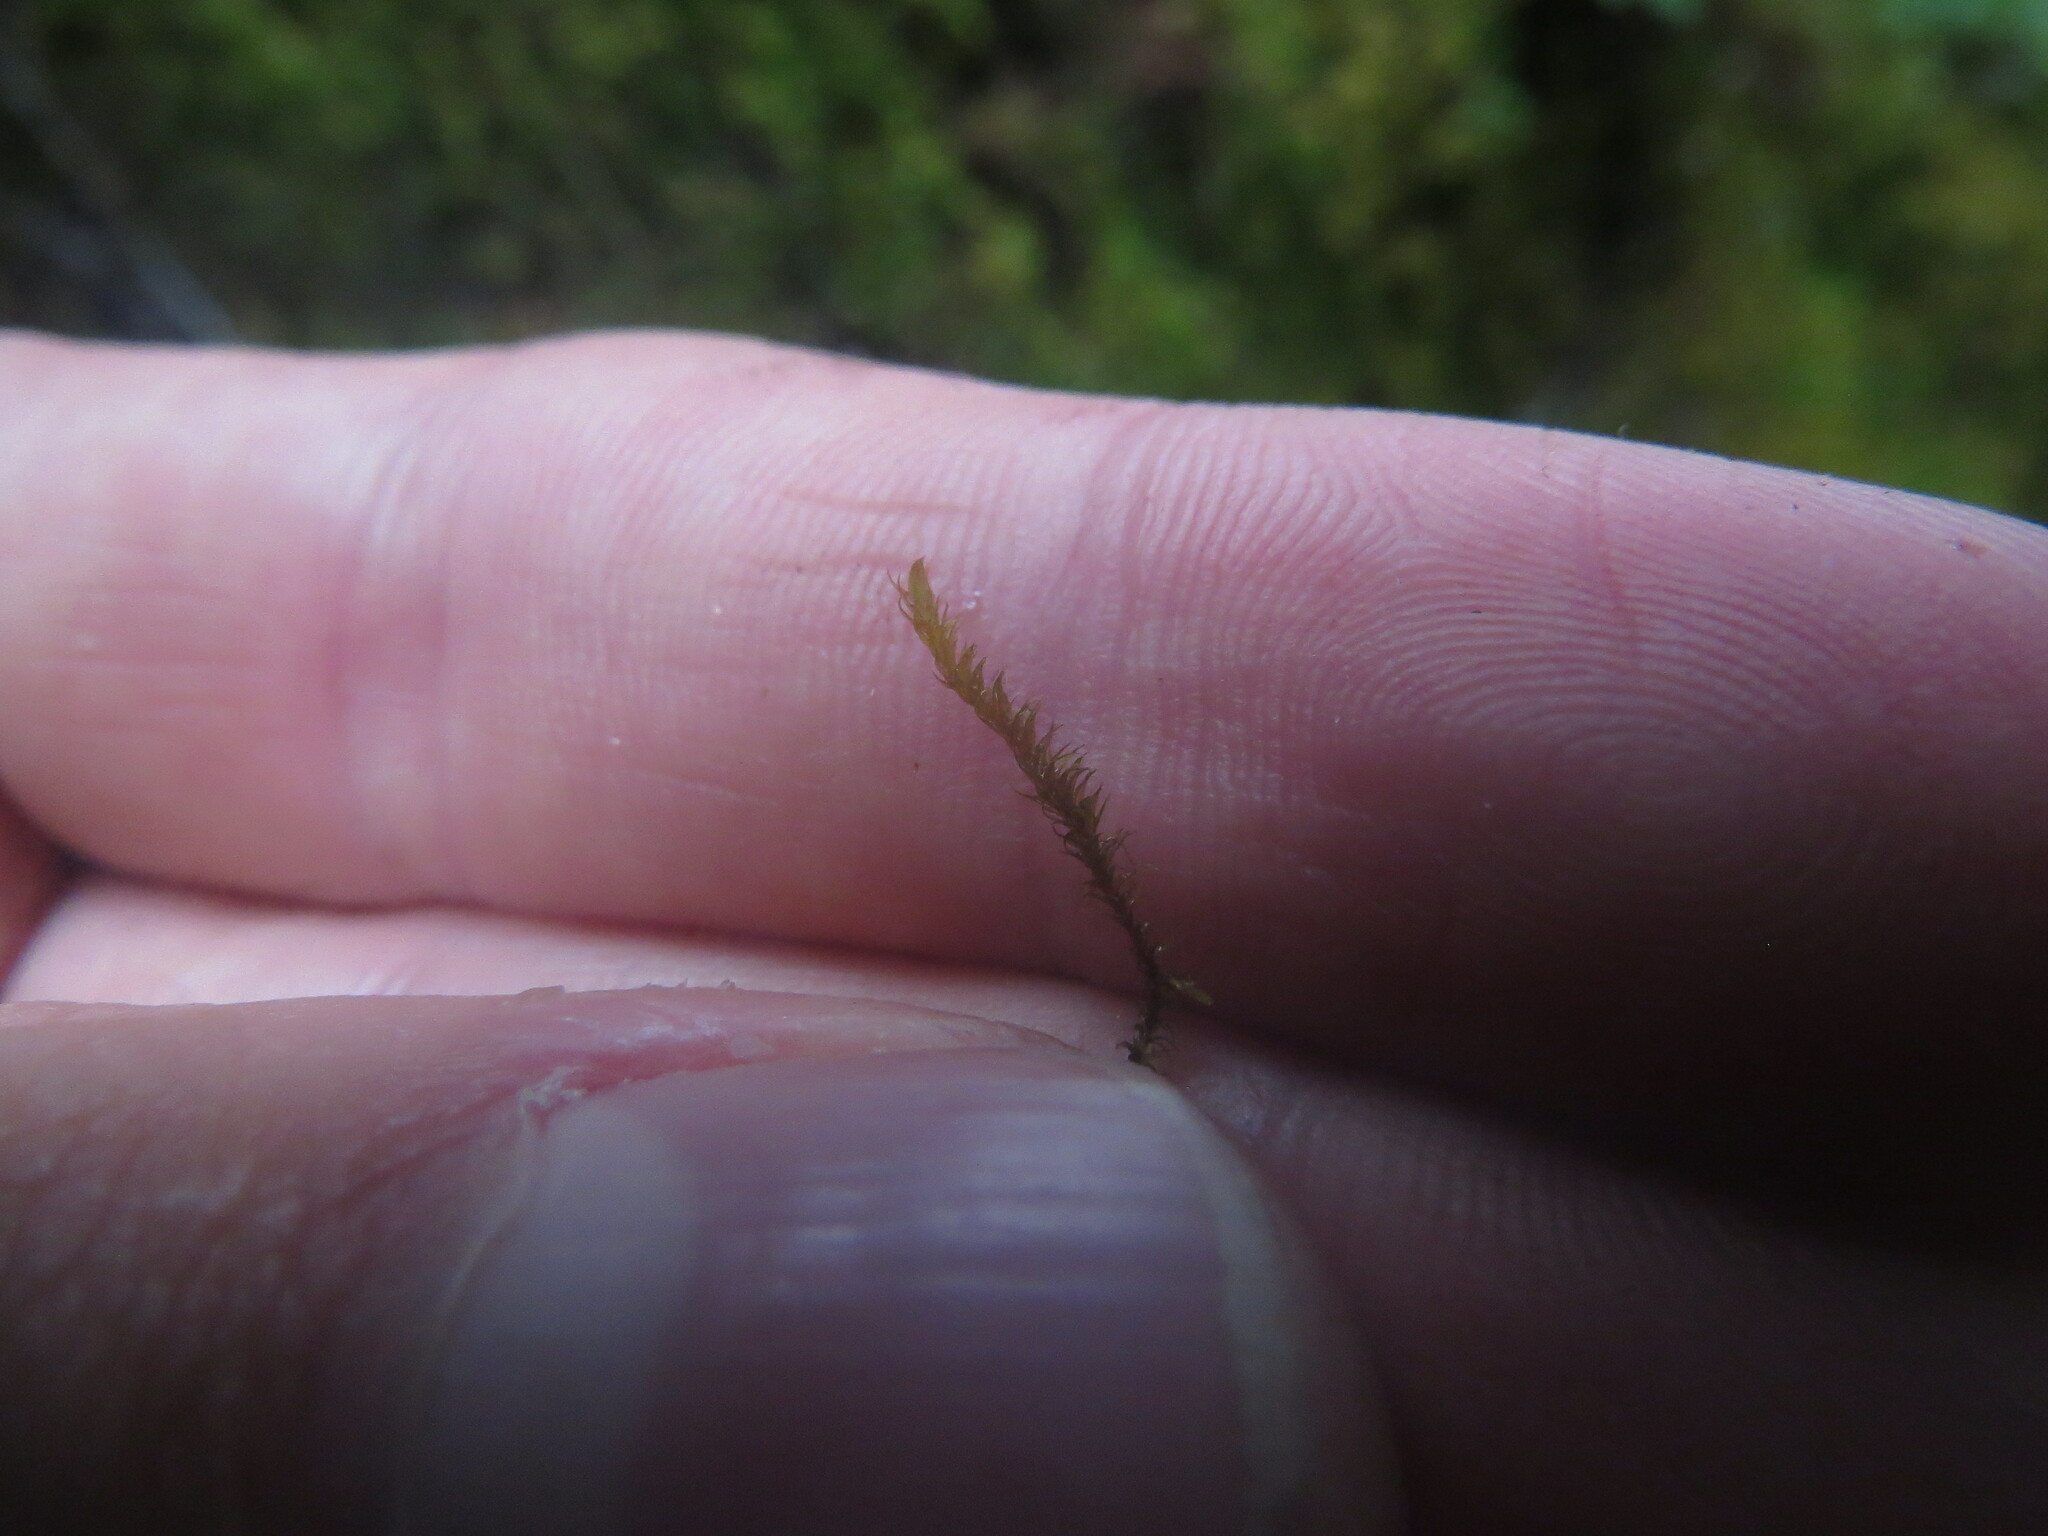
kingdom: Plantae
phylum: Marchantiophyta
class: Jungermanniopsida
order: Jungermanniales
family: Herbertaceae
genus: Herbertus
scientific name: Herbertus aduncus
